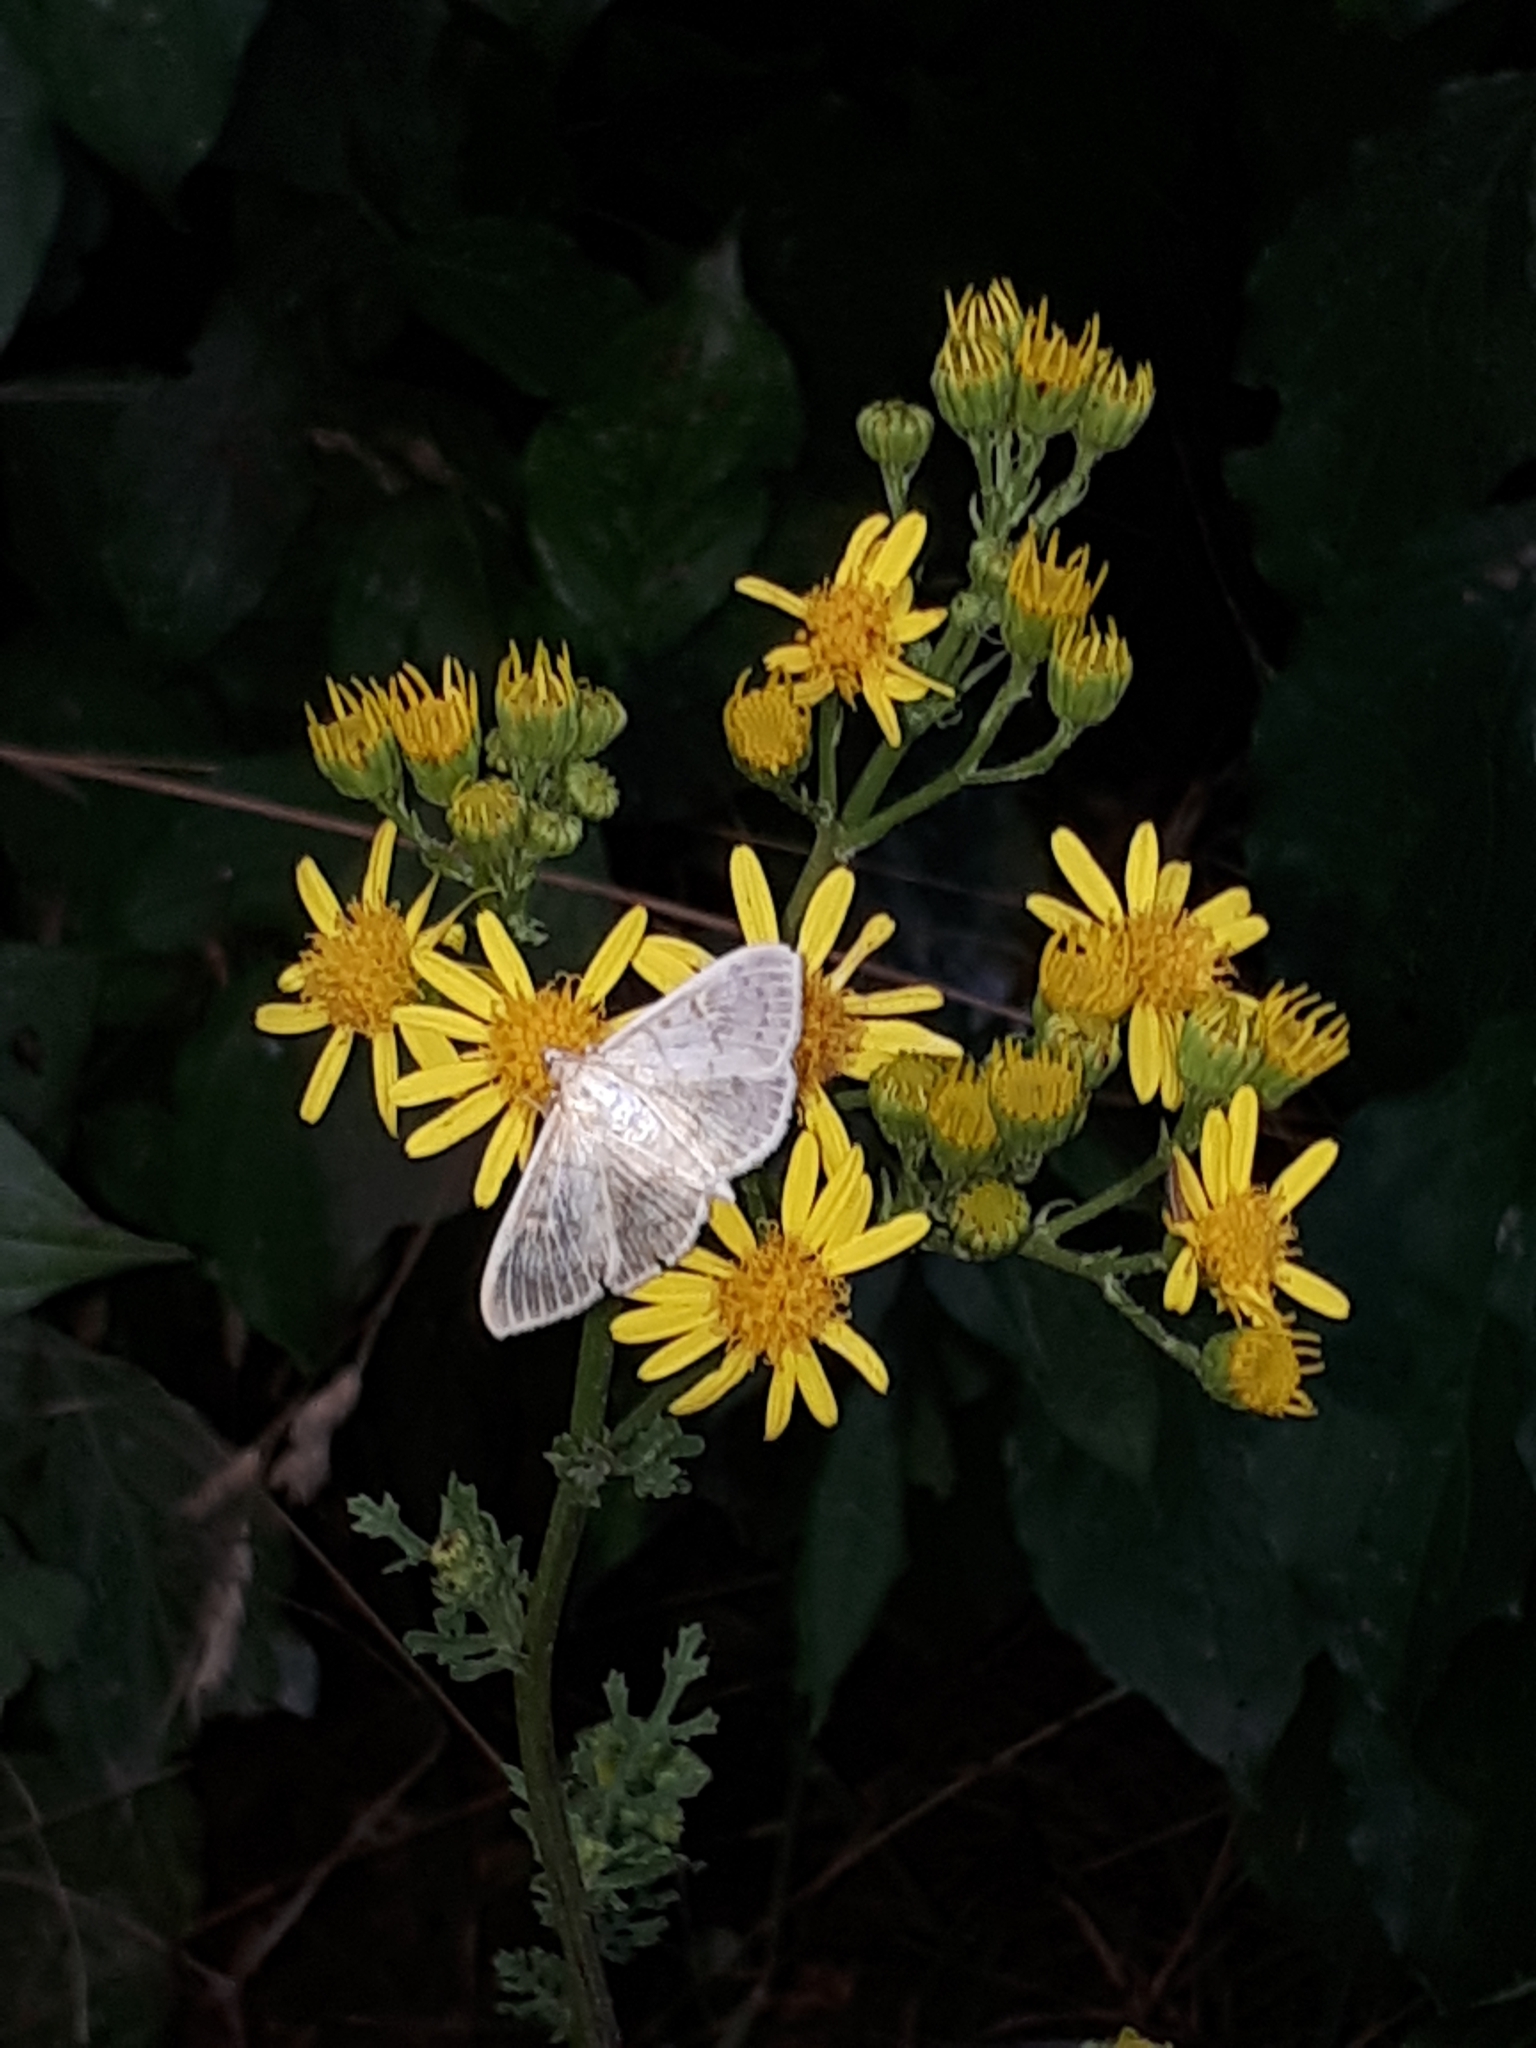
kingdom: Animalia
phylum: Arthropoda
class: Insecta
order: Lepidoptera
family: Crambidae
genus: Patania
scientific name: Patania ruralis
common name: Mother of pearl
